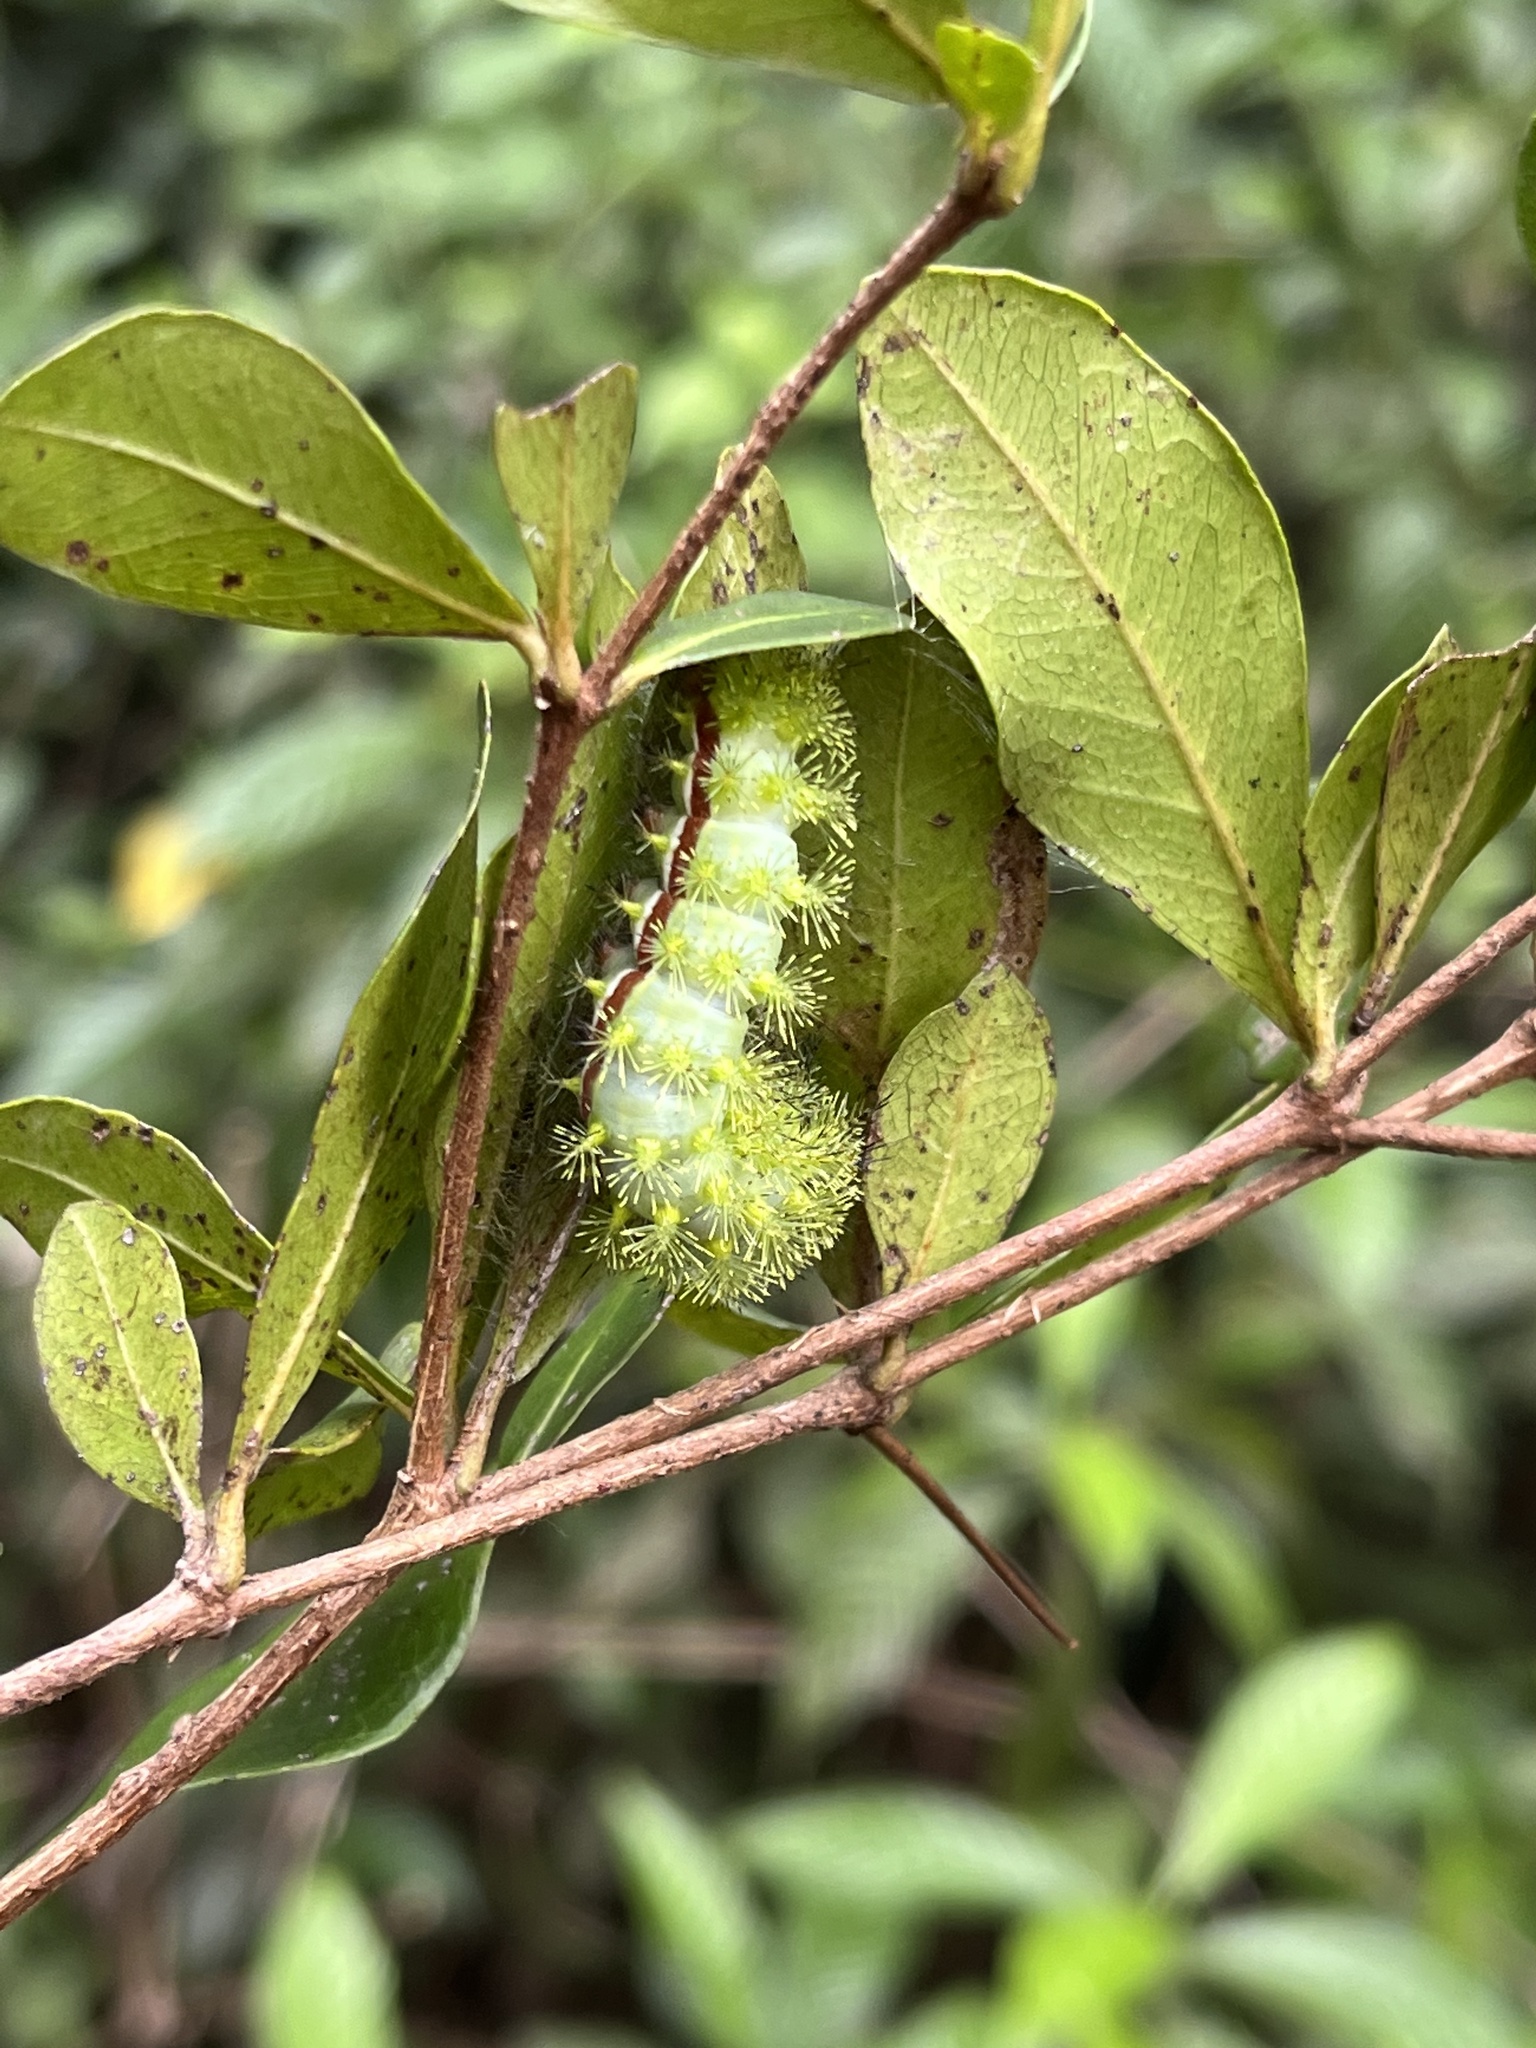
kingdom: Animalia
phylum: Arthropoda
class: Insecta
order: Lepidoptera
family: Saturniidae
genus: Automeris
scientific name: Automeris io
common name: Io moth
